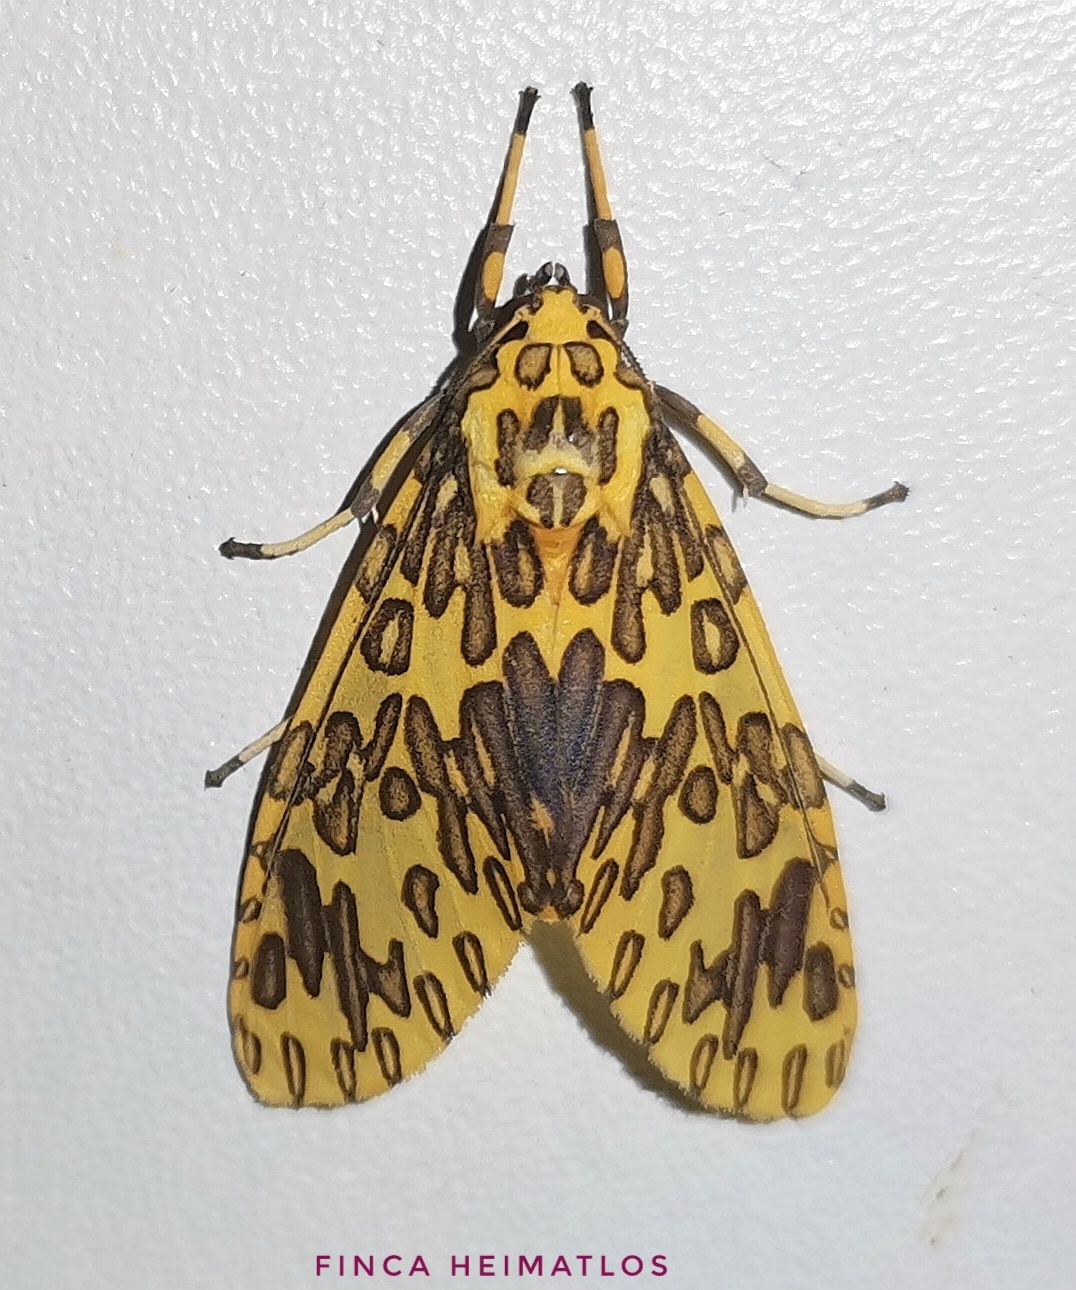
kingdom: Animalia
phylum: Arthropoda
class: Insecta
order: Lepidoptera
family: Erebidae
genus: Amaxia
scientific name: Amaxia pandama
